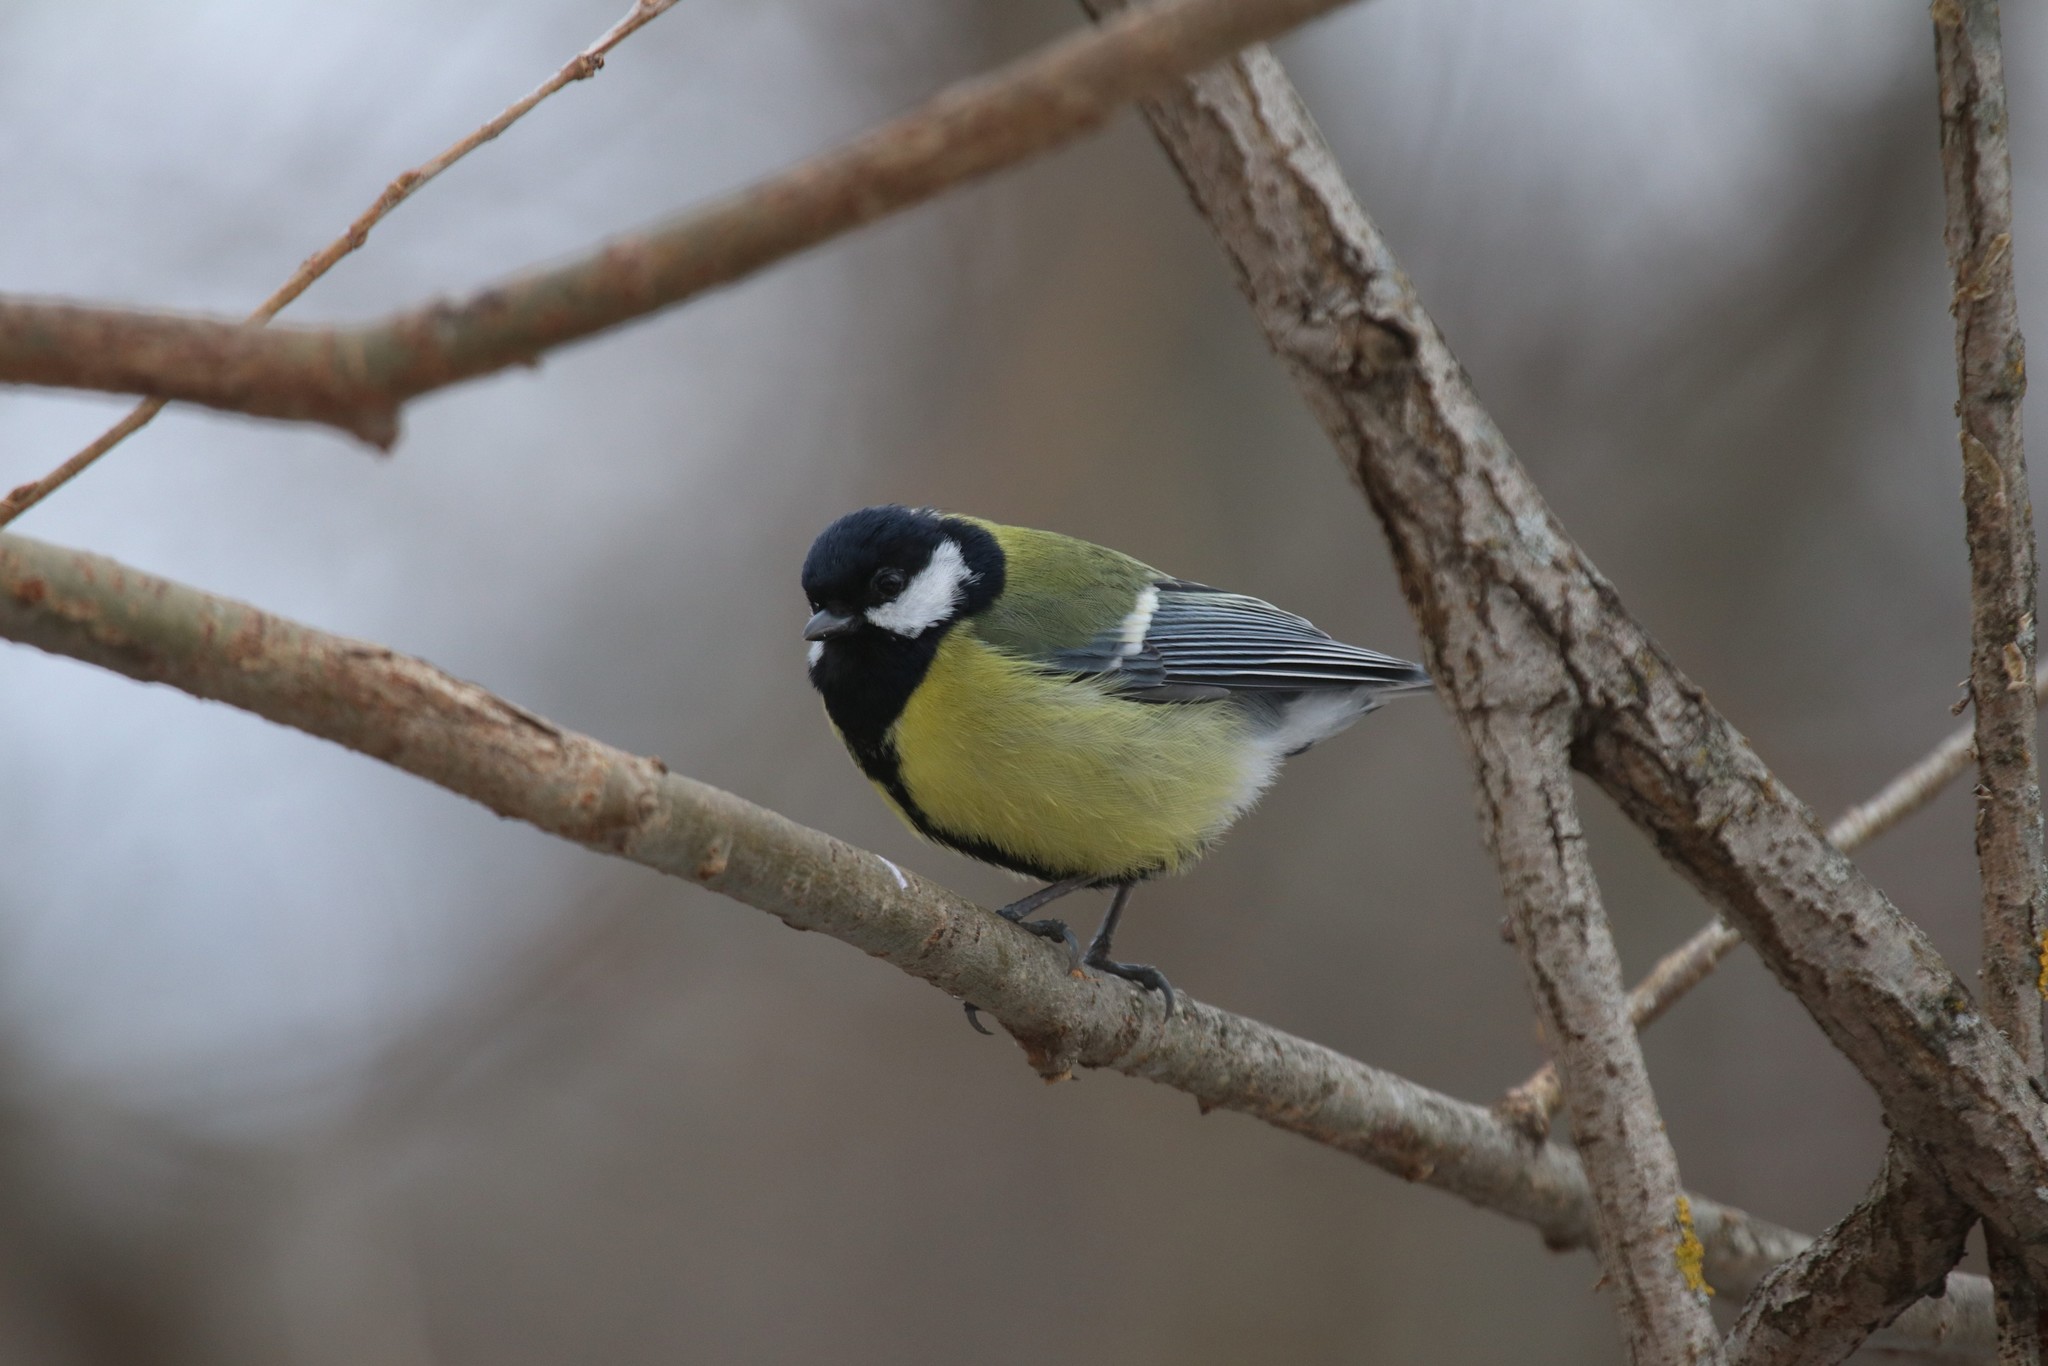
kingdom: Animalia
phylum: Chordata
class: Aves
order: Passeriformes
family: Paridae
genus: Parus
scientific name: Parus major
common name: Great tit
